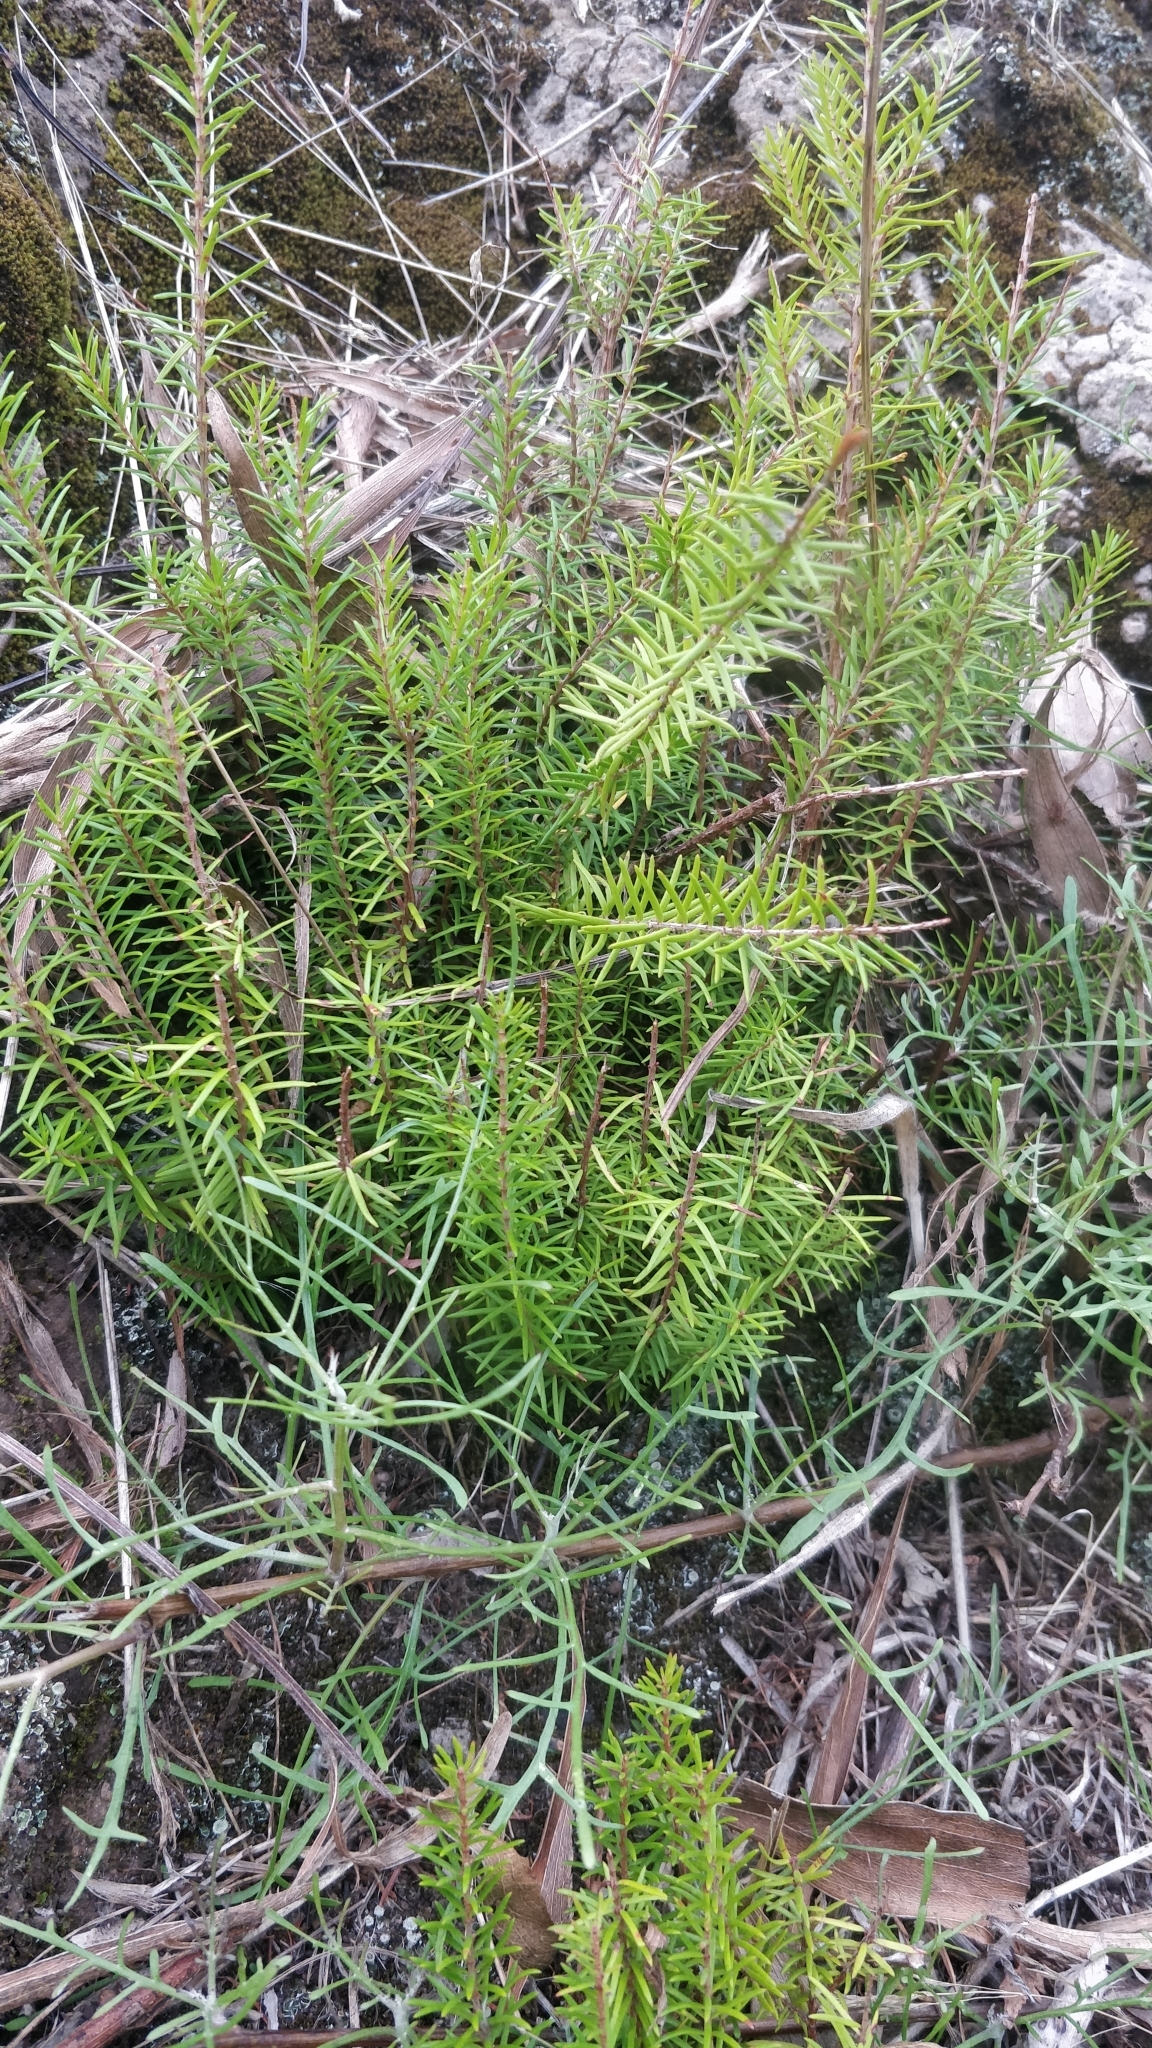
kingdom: Plantae
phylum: Tracheophyta
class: Magnoliopsida
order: Ericales
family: Ericaceae
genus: Erica
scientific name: Erica platycodon
